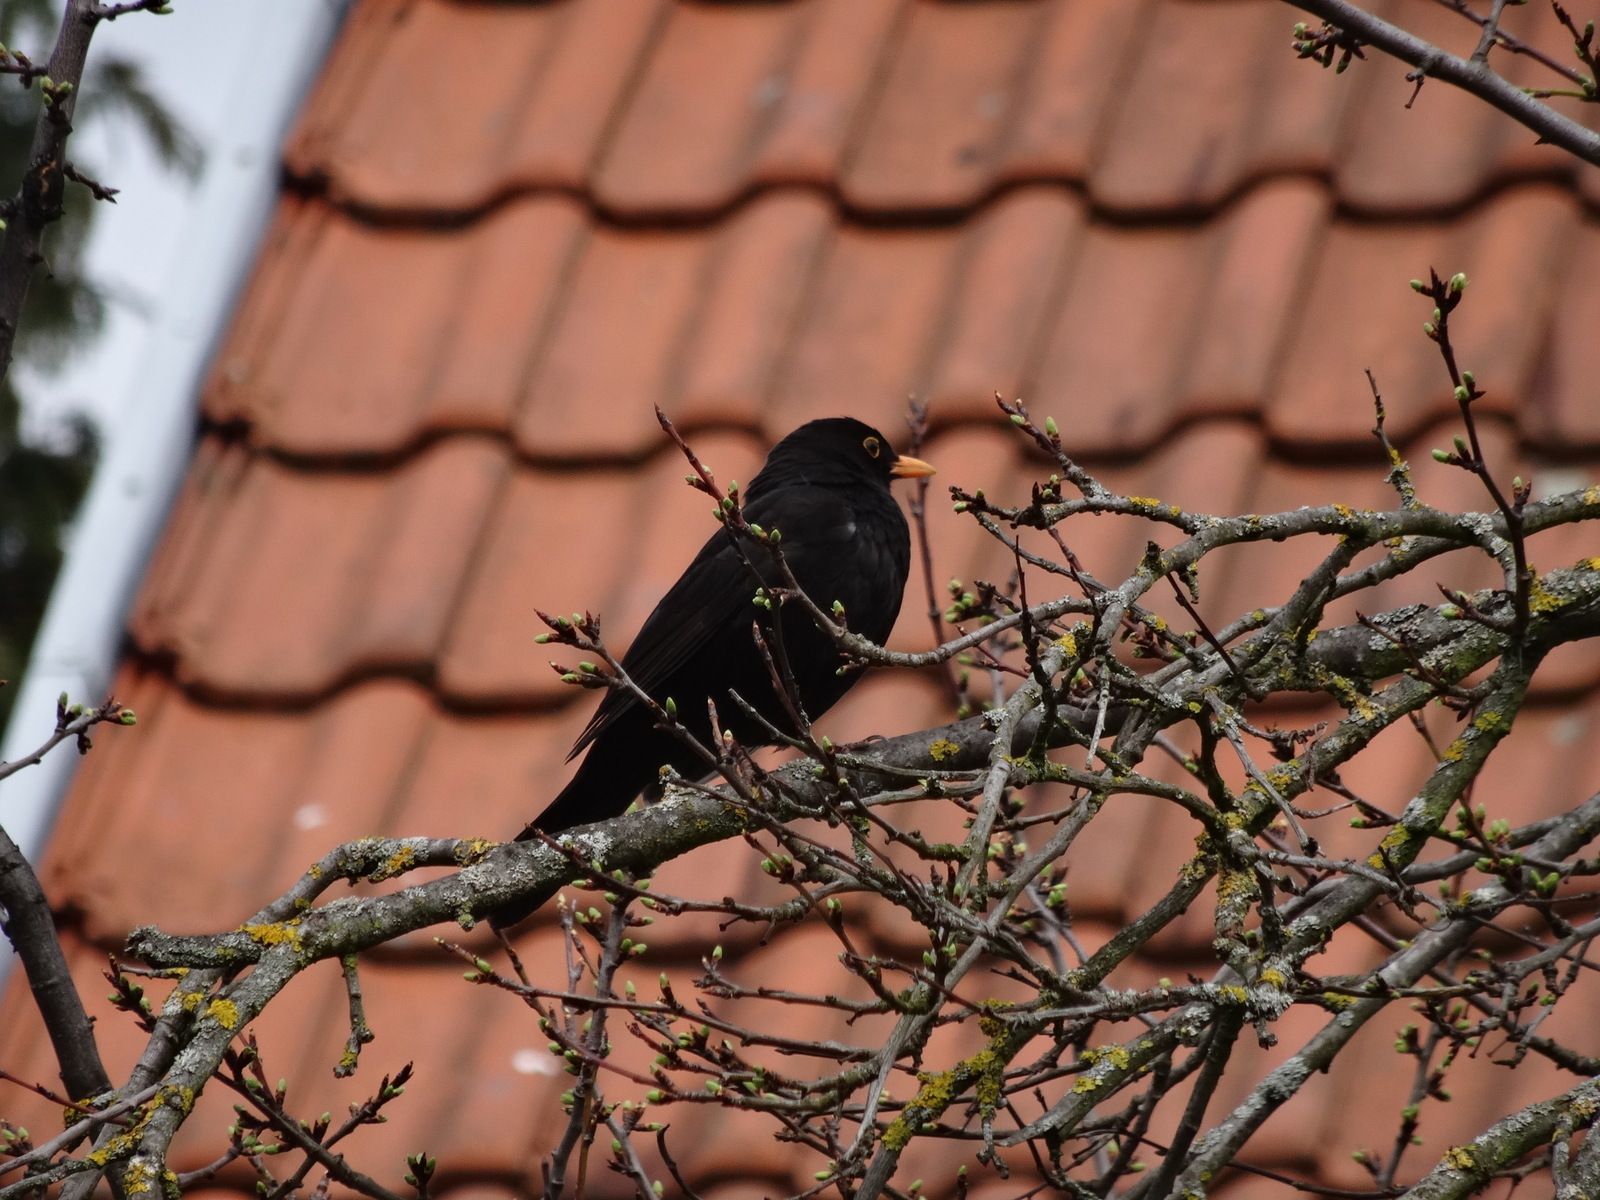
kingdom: Animalia
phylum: Chordata
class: Aves
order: Passeriformes
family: Turdidae
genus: Turdus
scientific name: Turdus merula
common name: Common blackbird
